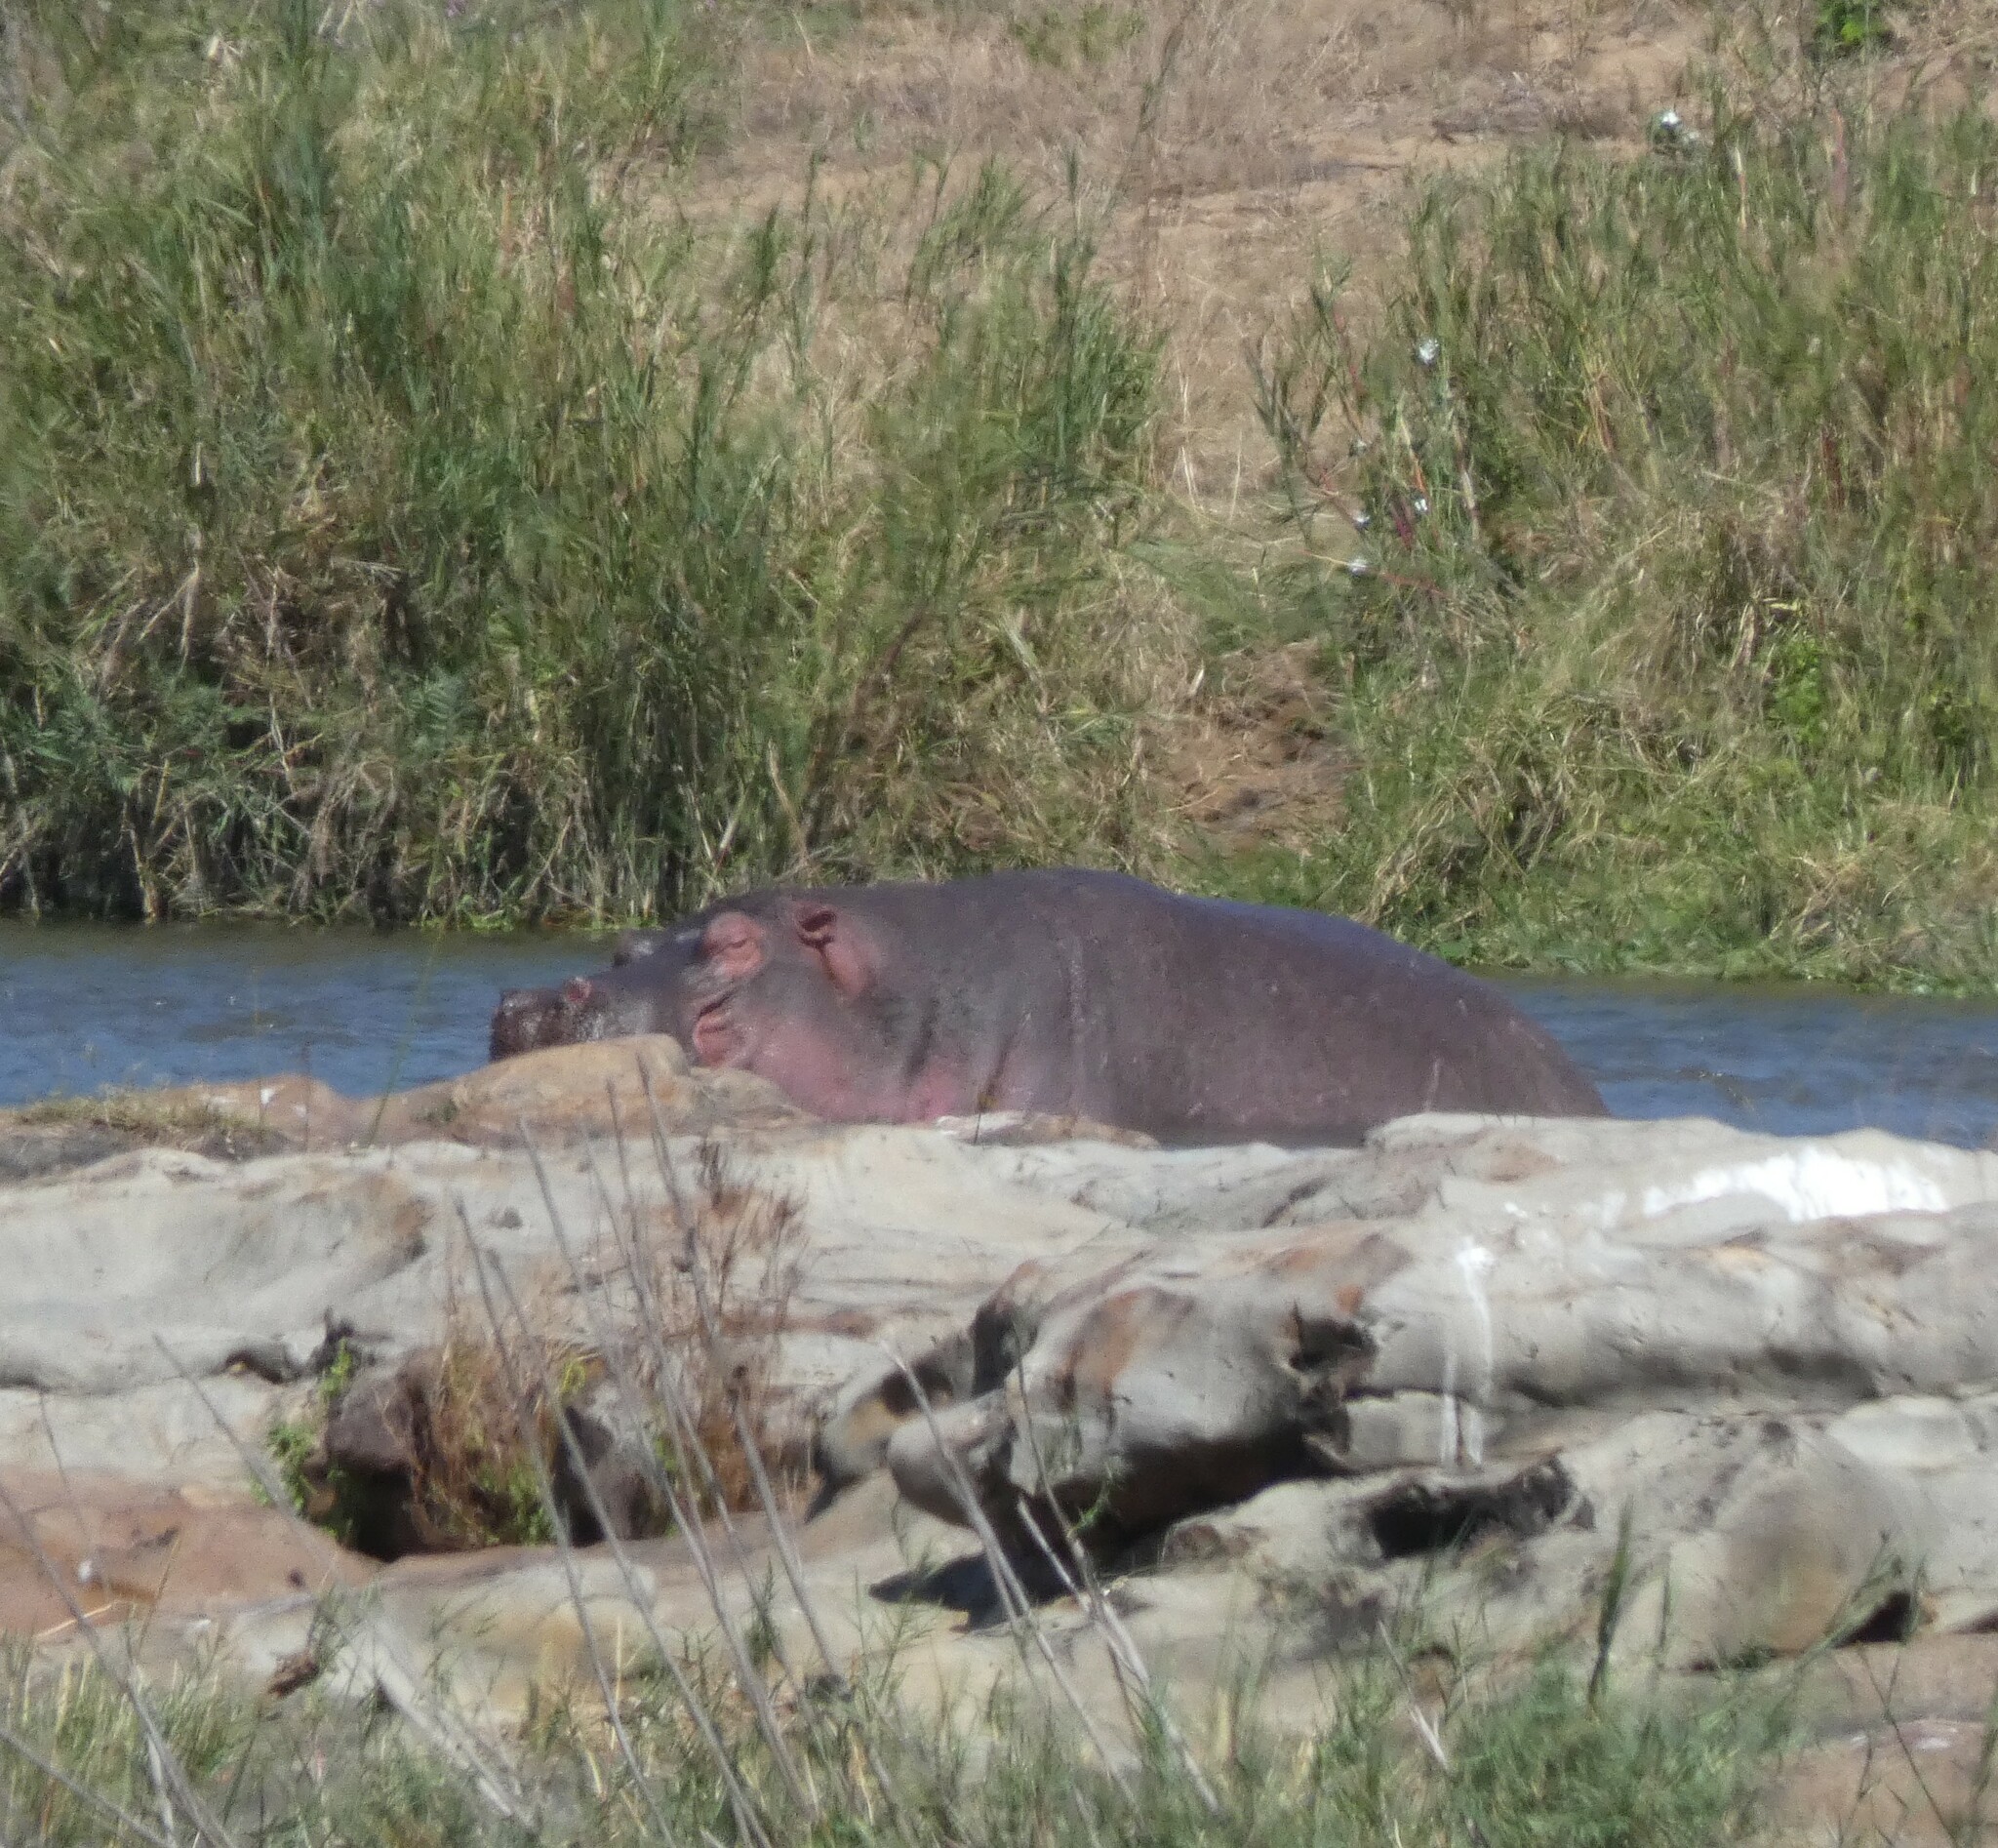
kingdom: Animalia
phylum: Chordata
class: Mammalia
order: Artiodactyla
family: Hippopotamidae
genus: Hippopotamus
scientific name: Hippopotamus amphibius
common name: Common hippopotamus
